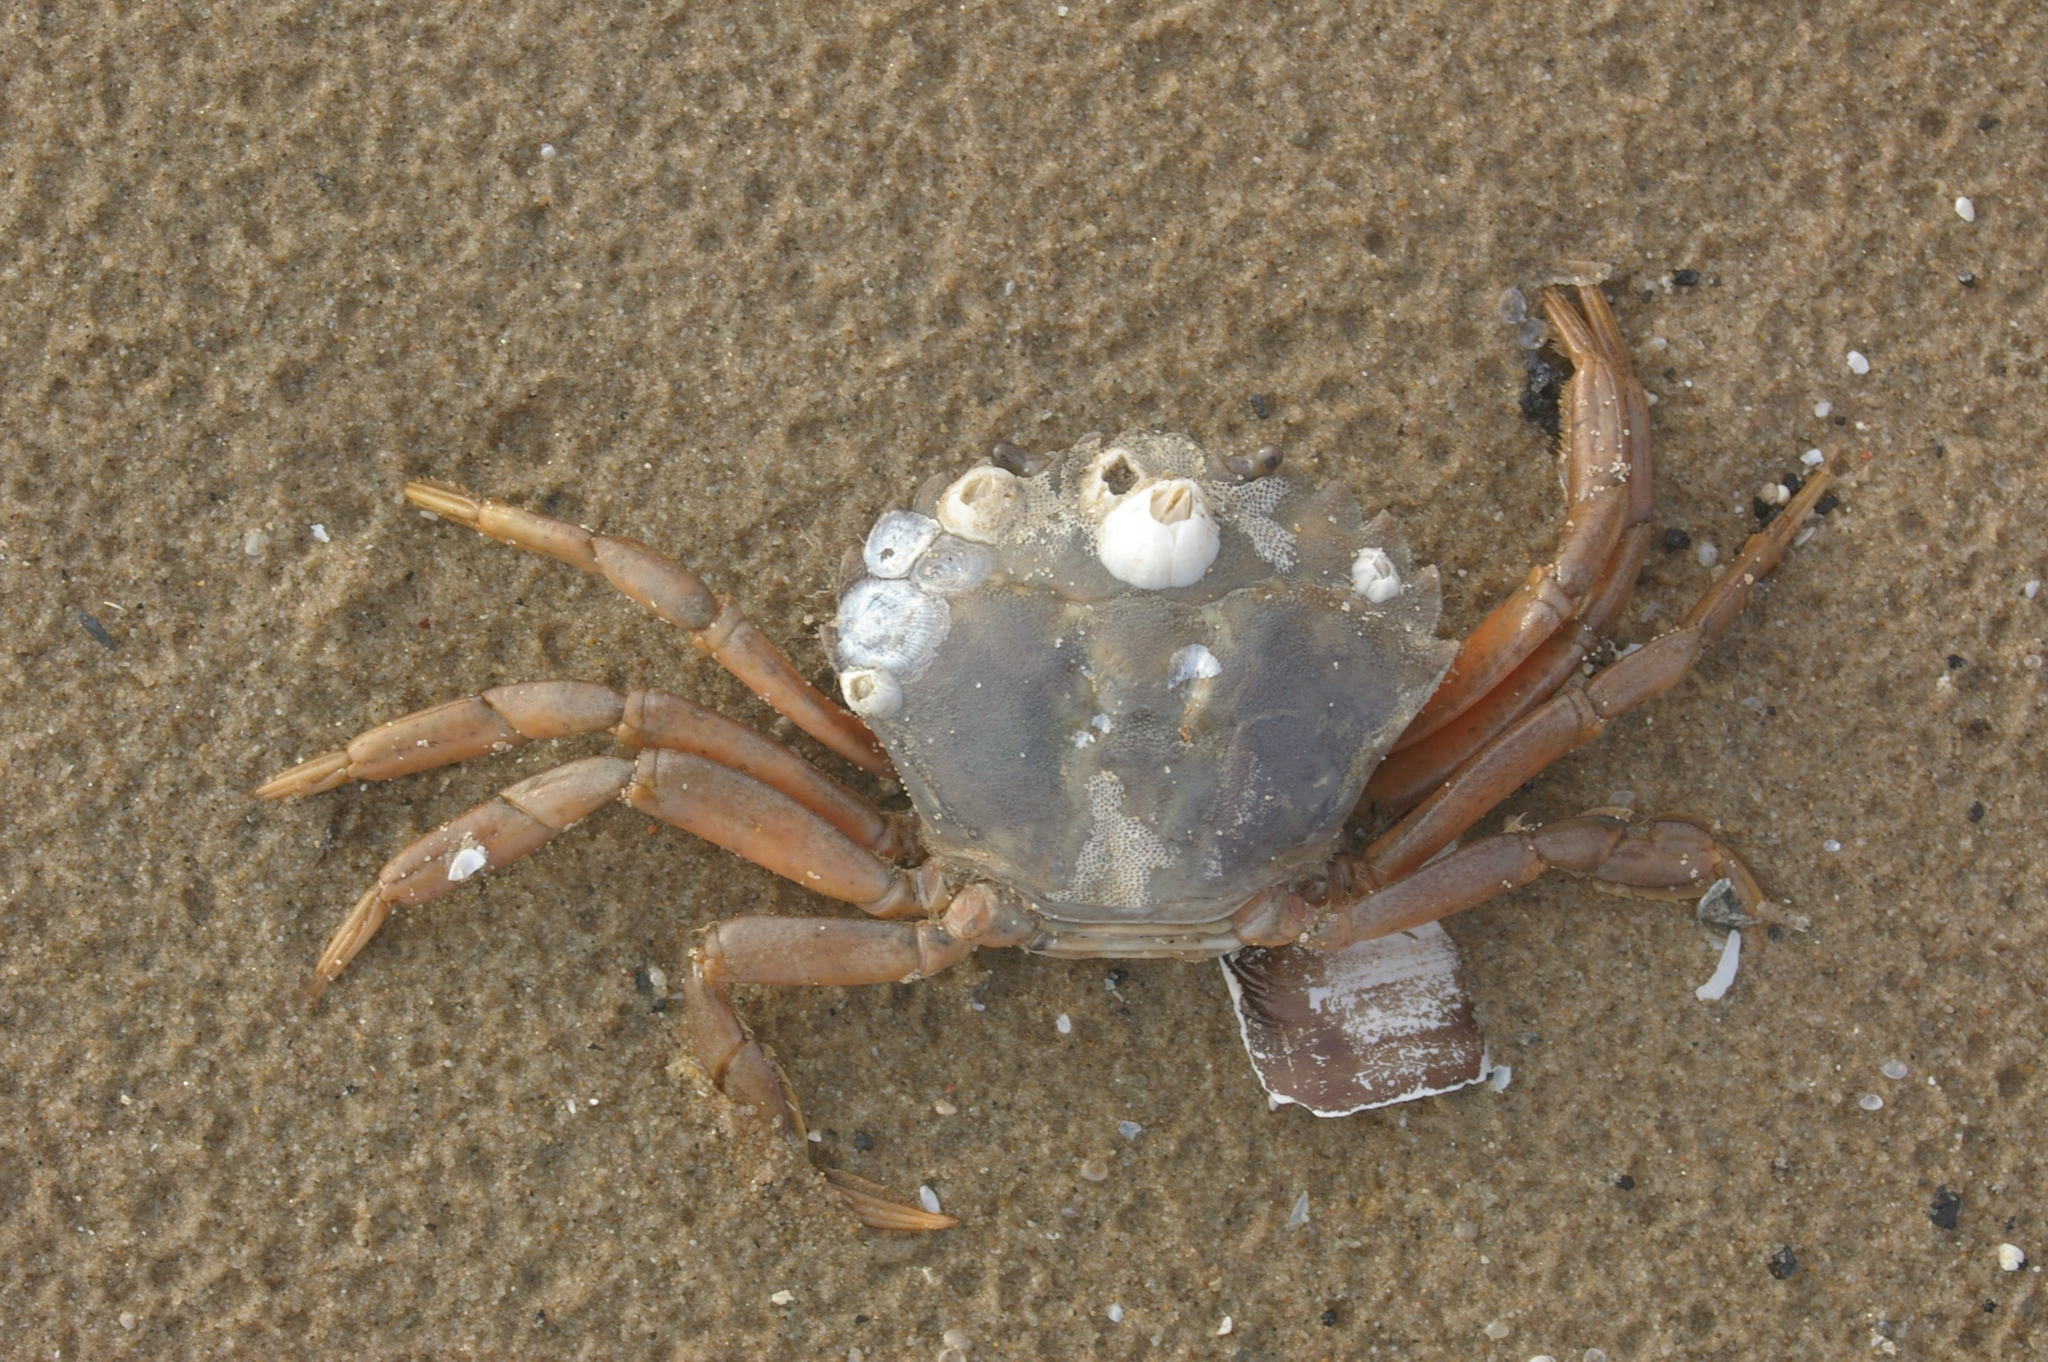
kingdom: Animalia
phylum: Arthropoda
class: Malacostraca
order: Decapoda
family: Carcinidae
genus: Carcinus
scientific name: Carcinus maenas
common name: European green crab
